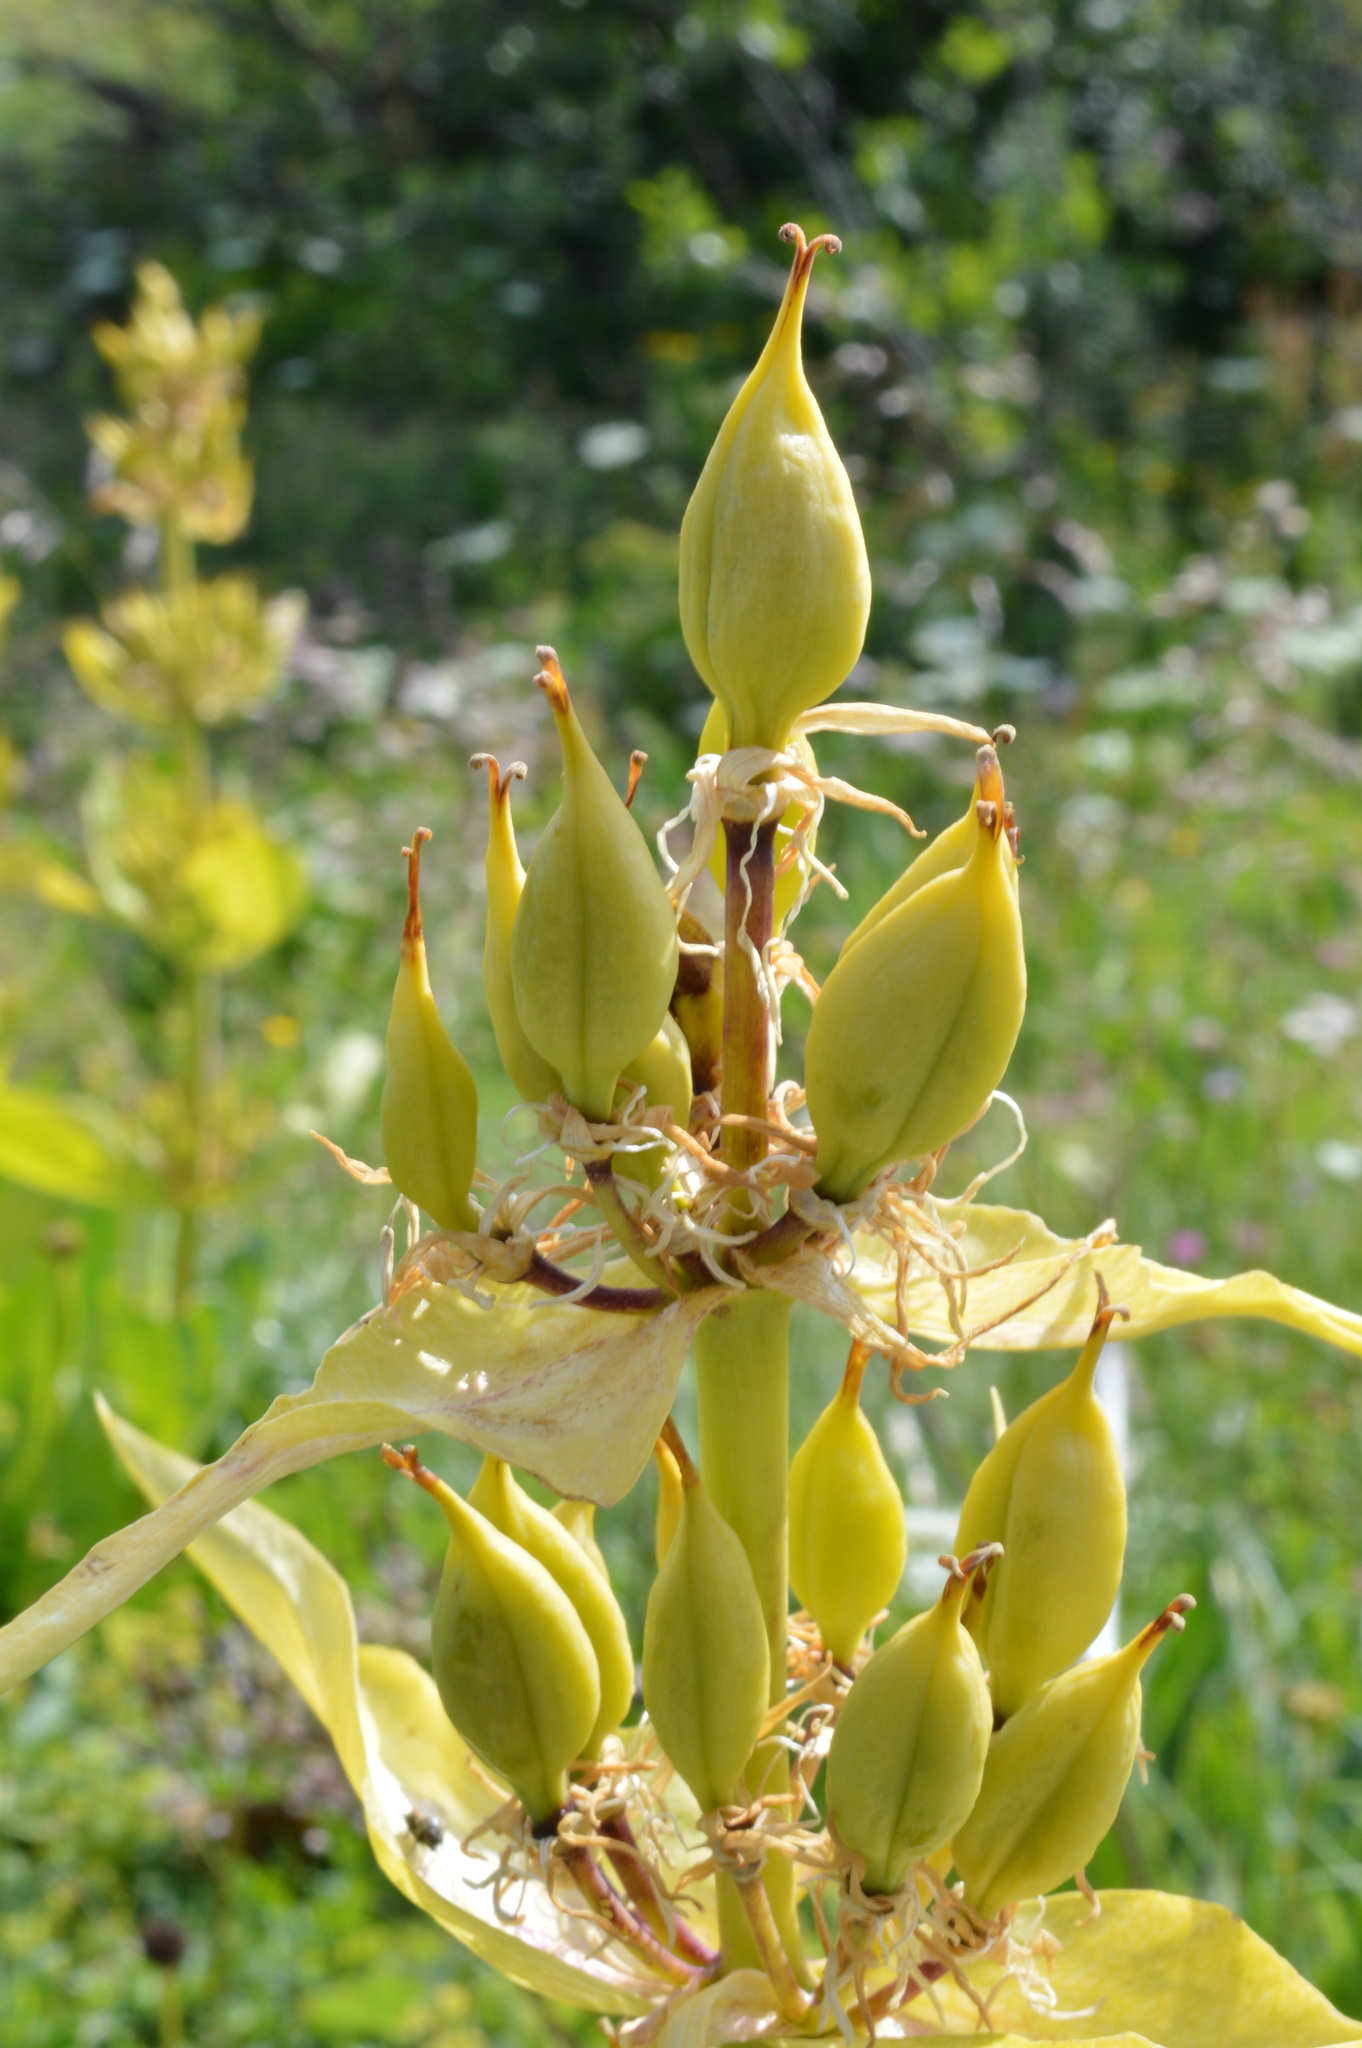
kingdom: Plantae
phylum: Tracheophyta
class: Magnoliopsida
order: Gentianales
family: Gentianaceae
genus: Gentiana
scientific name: Gentiana lutea
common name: Great yellow gentian
